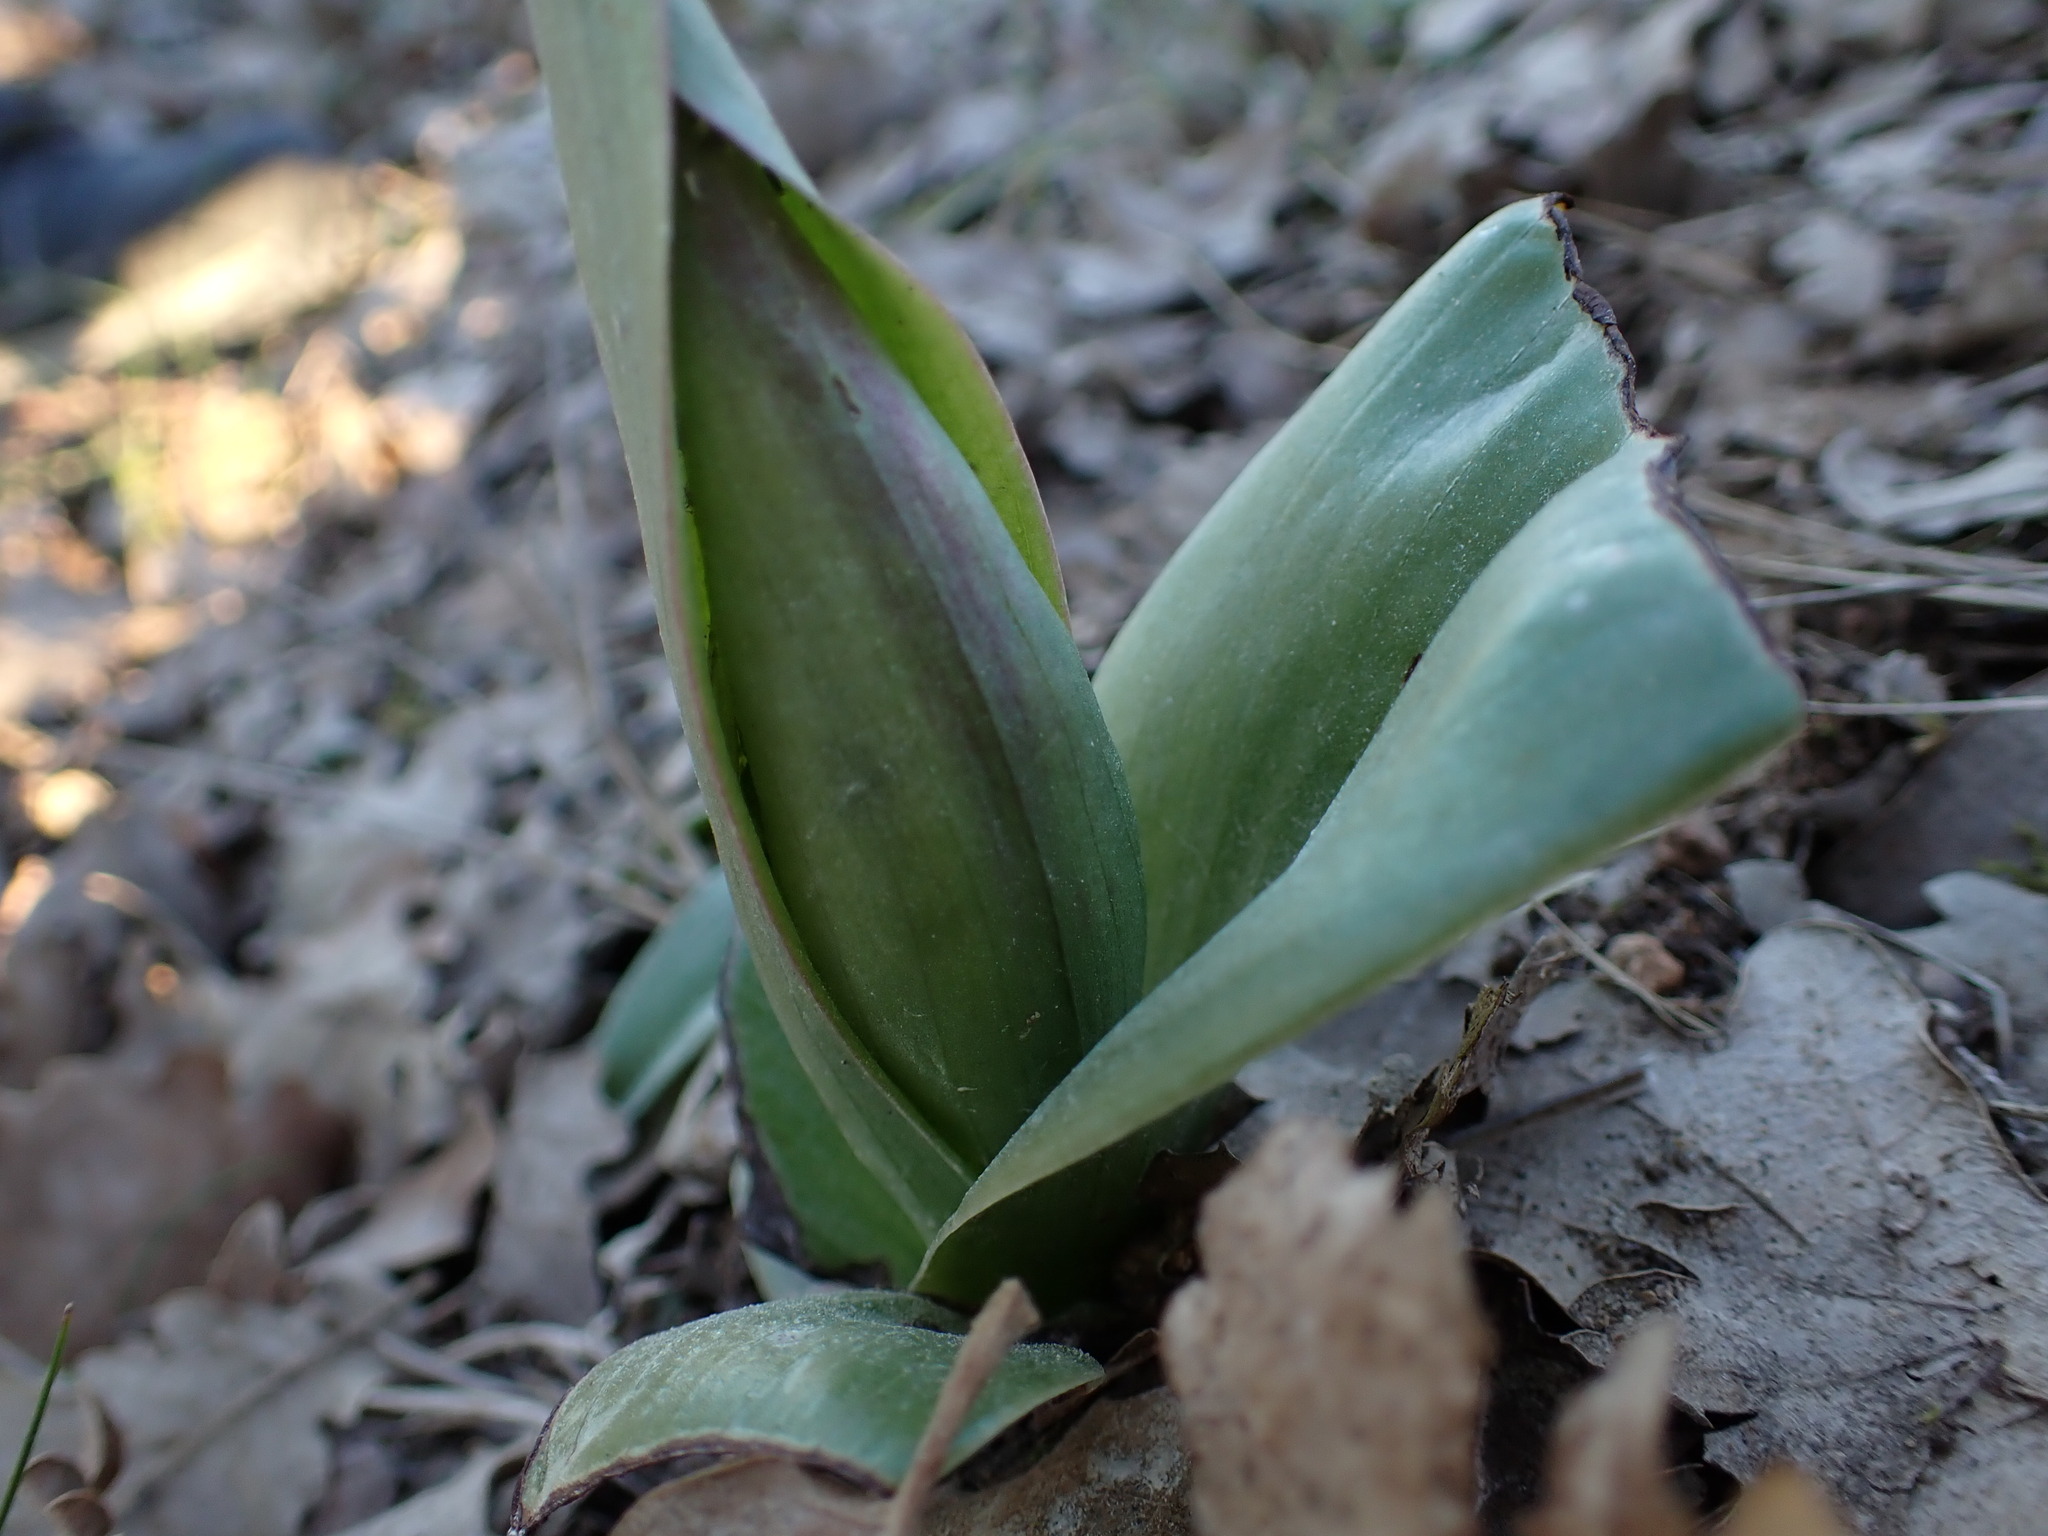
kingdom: Plantae
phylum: Tracheophyta
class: Liliopsida
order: Asparagales
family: Orchidaceae
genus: Himantoglossum
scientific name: Himantoglossum robertianum
